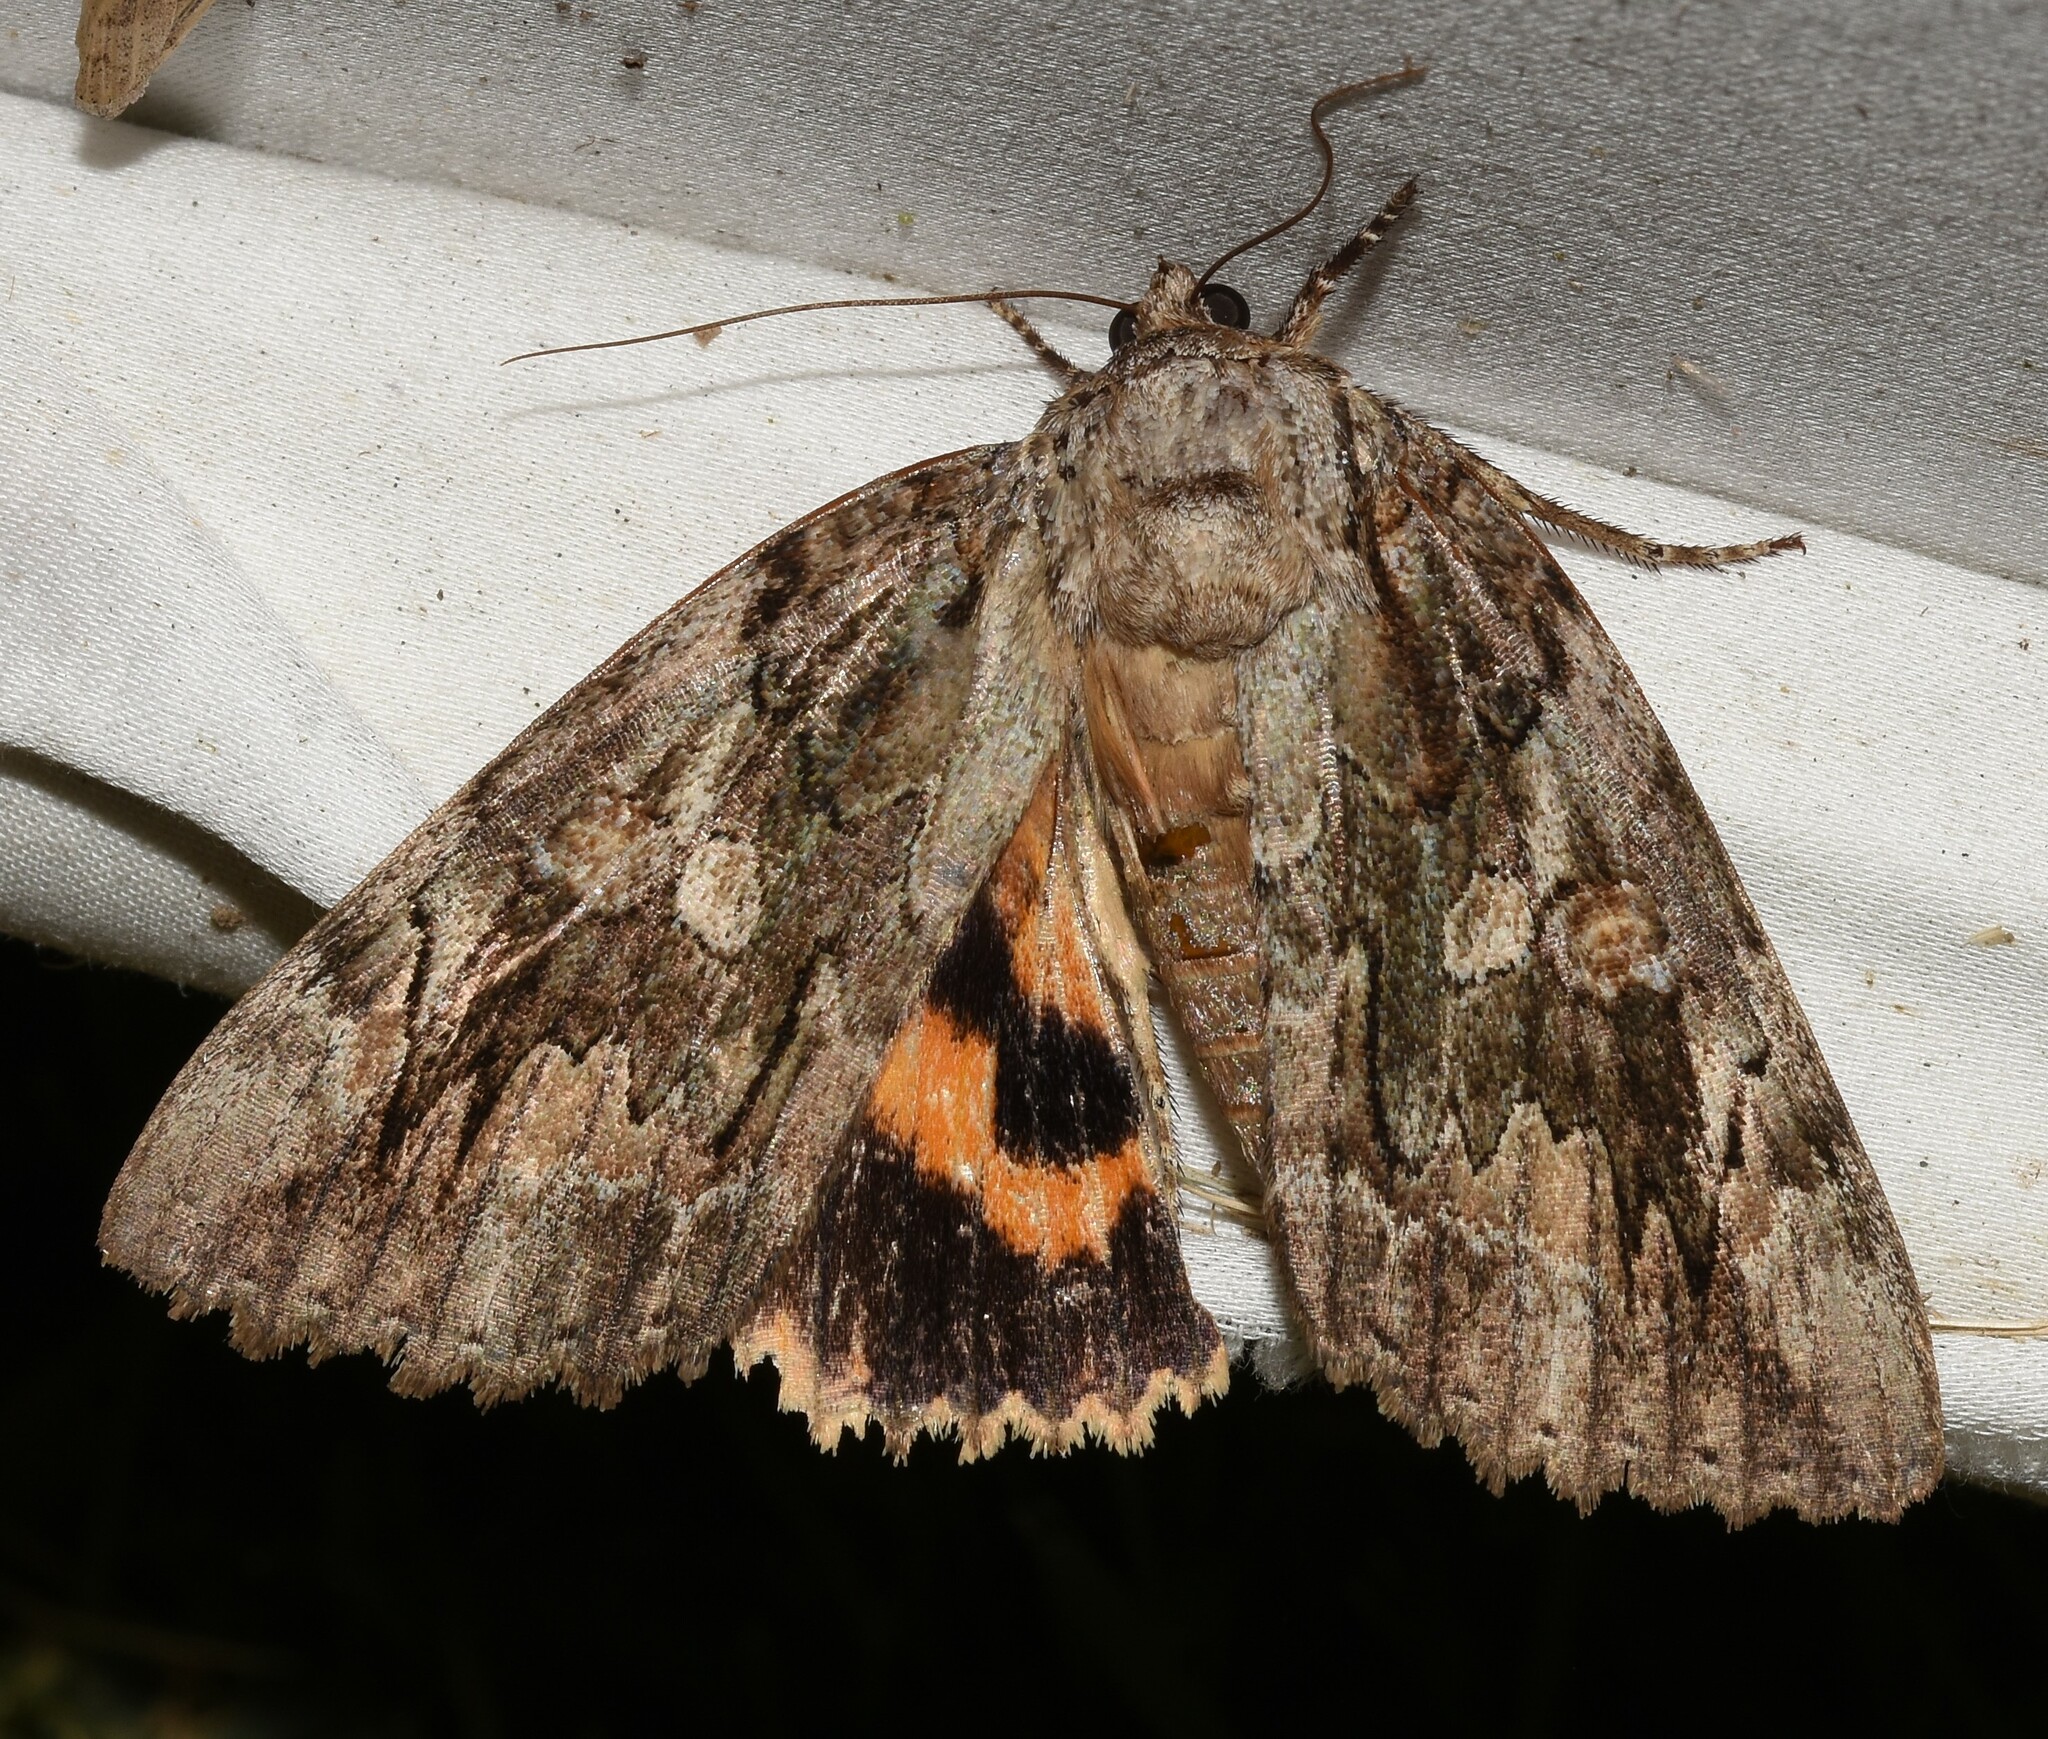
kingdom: Animalia
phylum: Arthropoda
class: Insecta
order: Lepidoptera
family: Erebidae
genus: Catocala
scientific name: Catocala neogama
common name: Bride underwing
